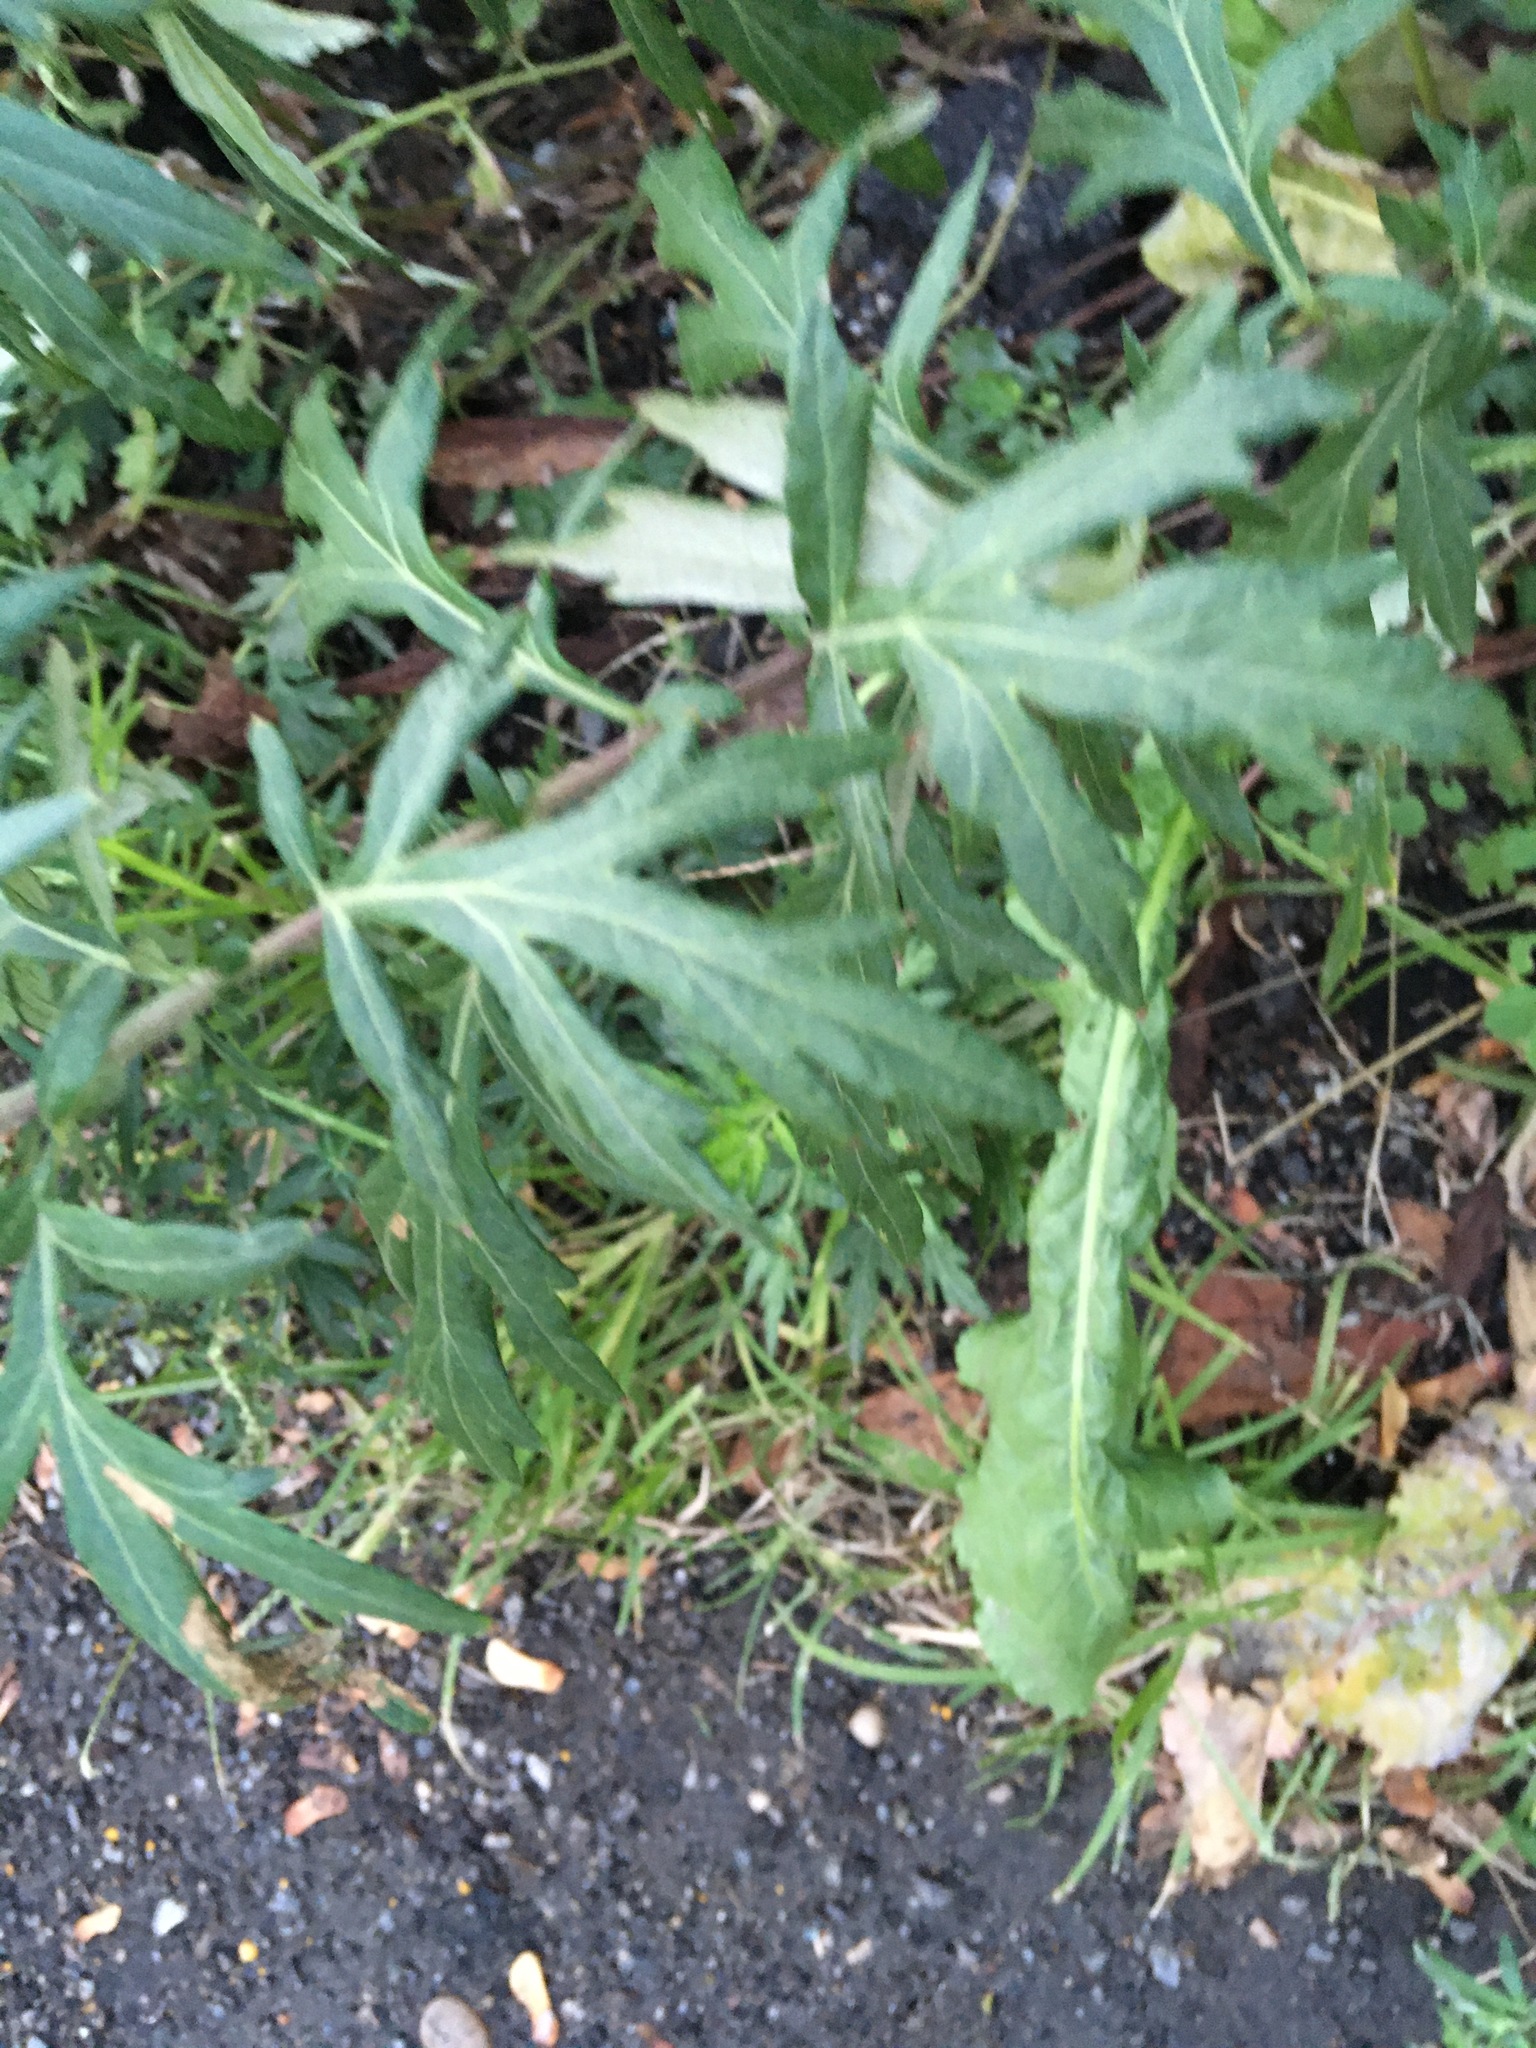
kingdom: Plantae
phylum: Tracheophyta
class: Magnoliopsida
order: Asterales
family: Asteraceae
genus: Artemisia
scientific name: Artemisia vulgaris
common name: Mugwort
